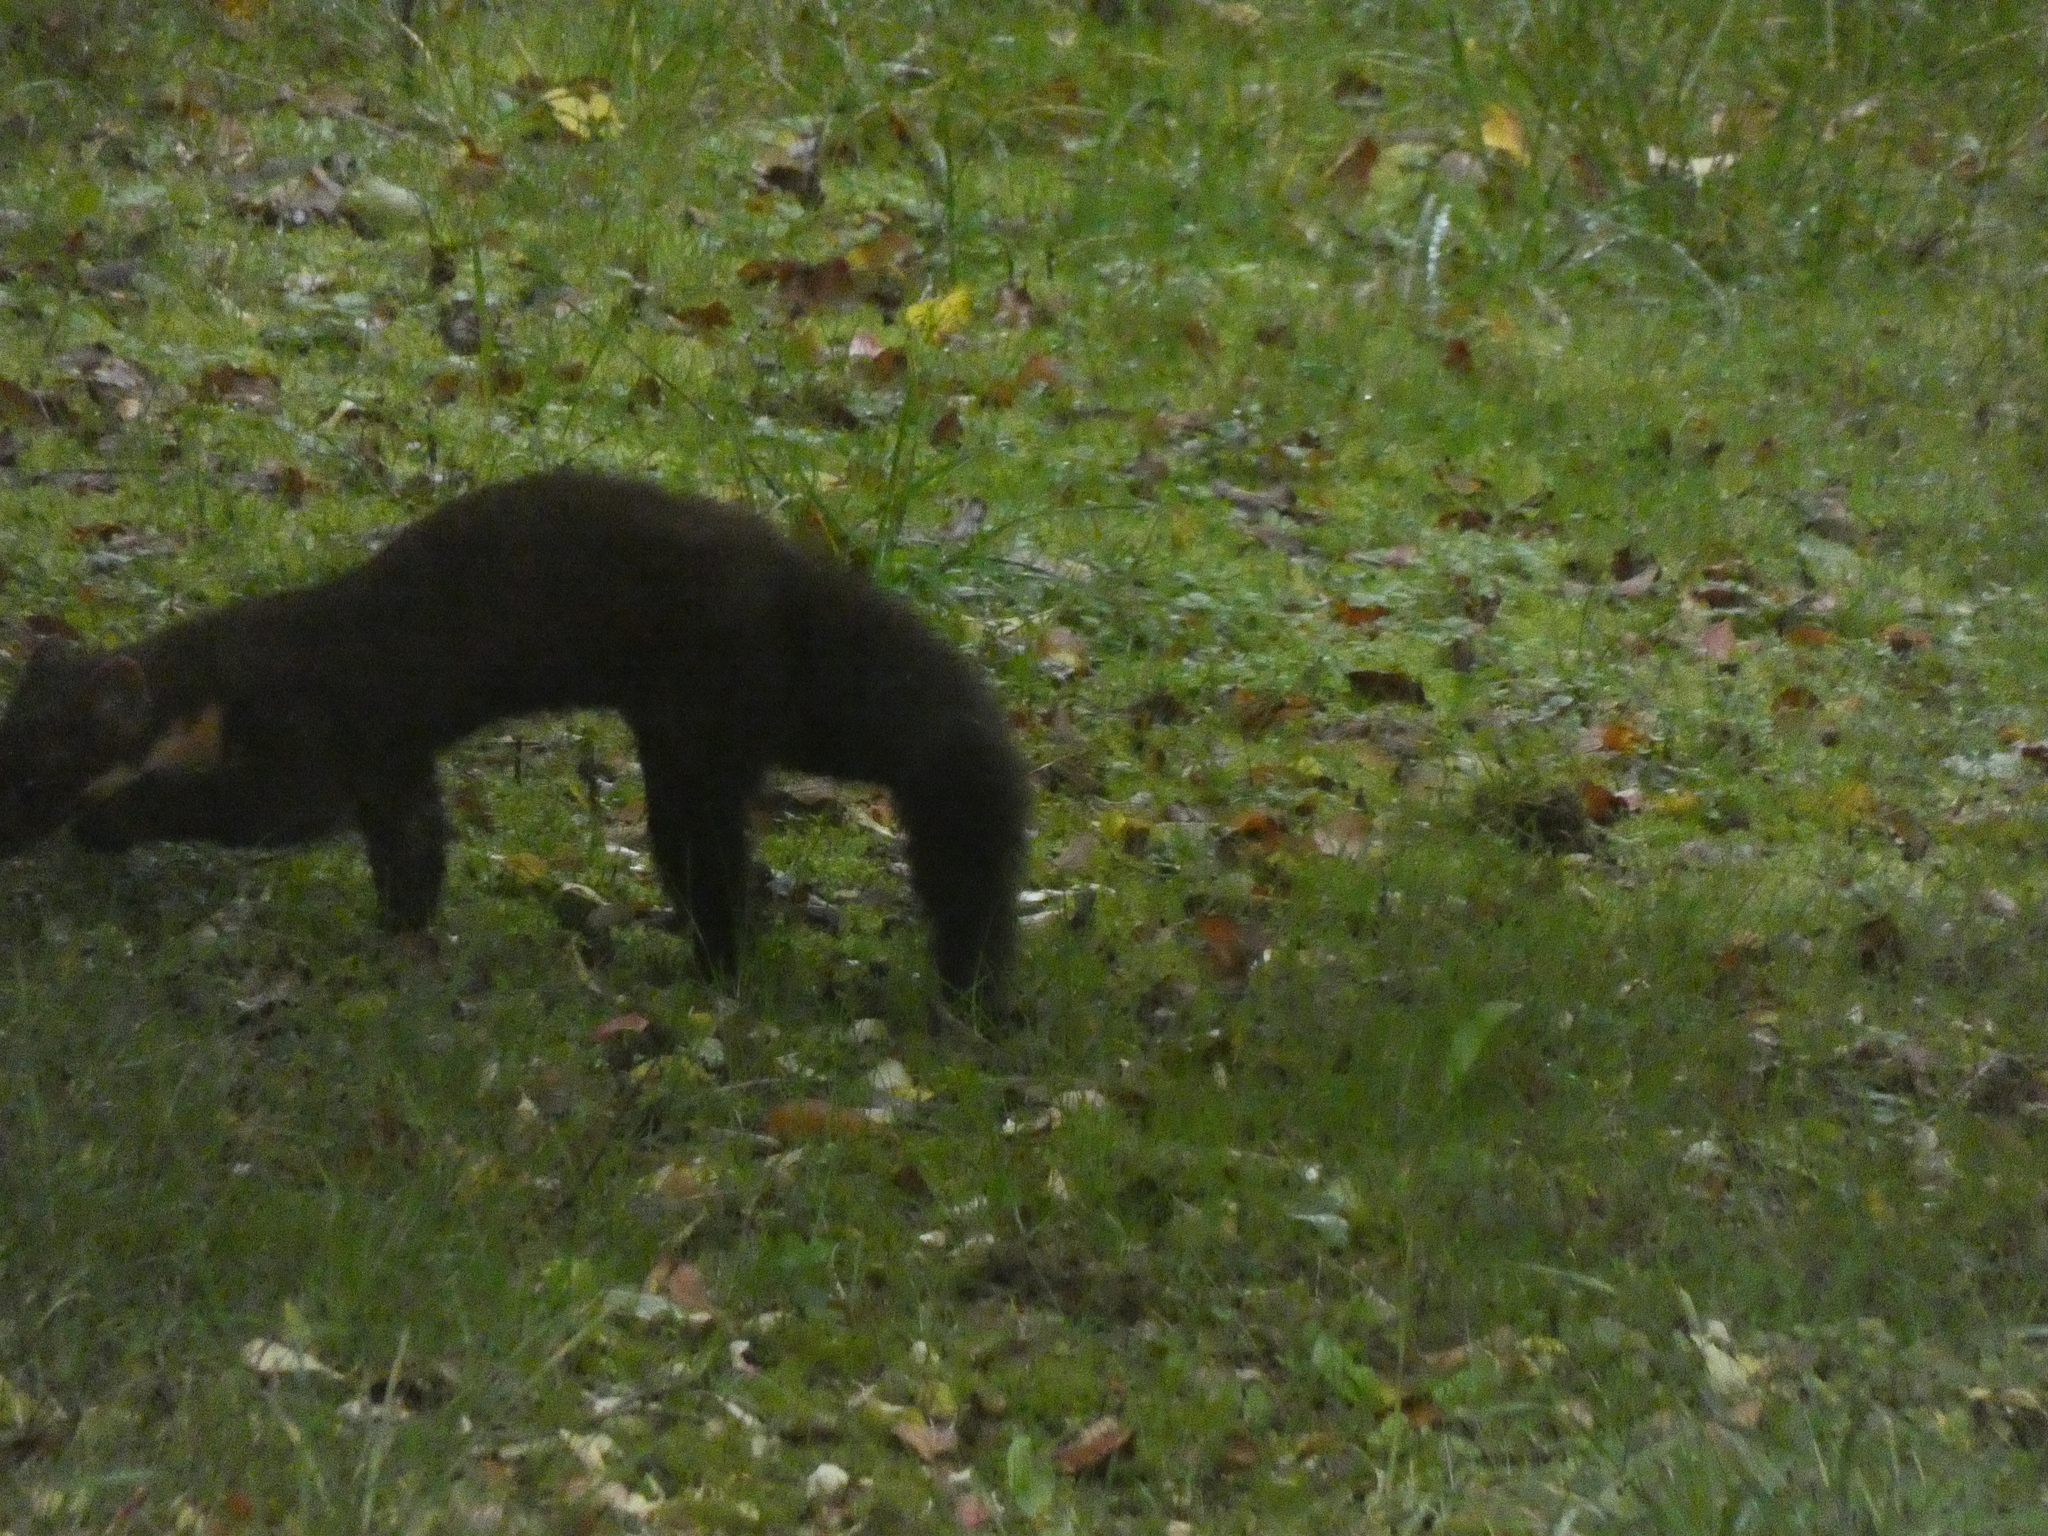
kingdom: Animalia
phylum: Chordata
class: Mammalia
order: Carnivora
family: Mustelidae
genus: Martes
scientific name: Martes martes
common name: European pine marten
